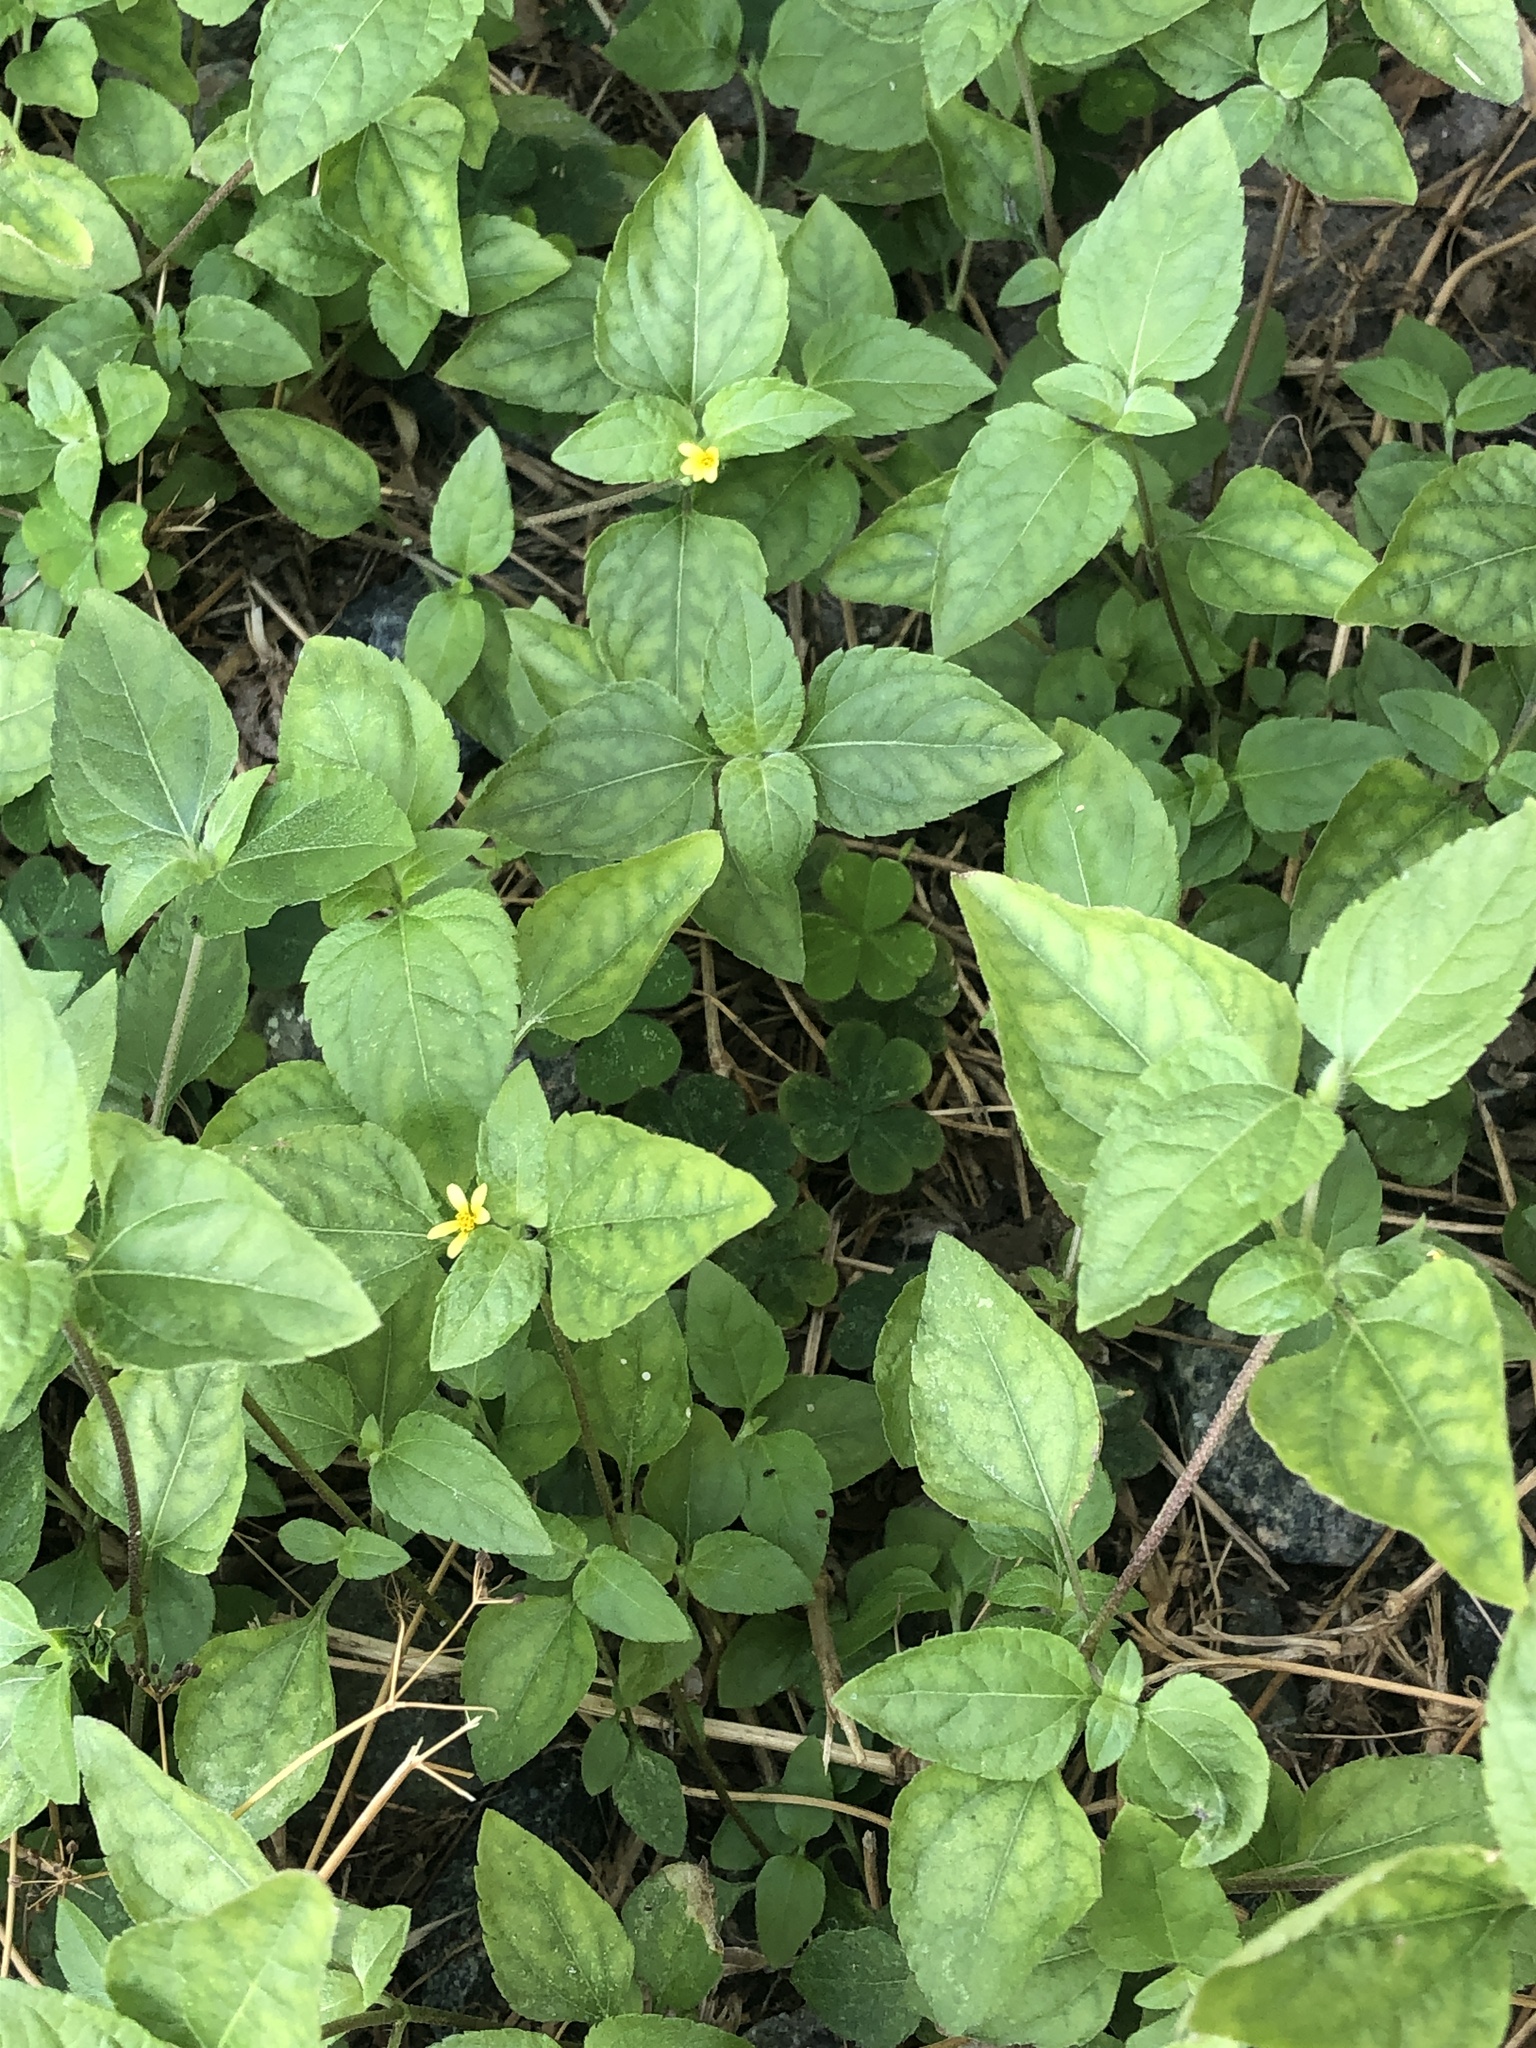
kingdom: Plantae
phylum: Tracheophyta
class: Magnoliopsida
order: Asterales
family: Asteraceae
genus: Calyptocarpus
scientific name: Calyptocarpus vialis
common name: Straggler daisy
